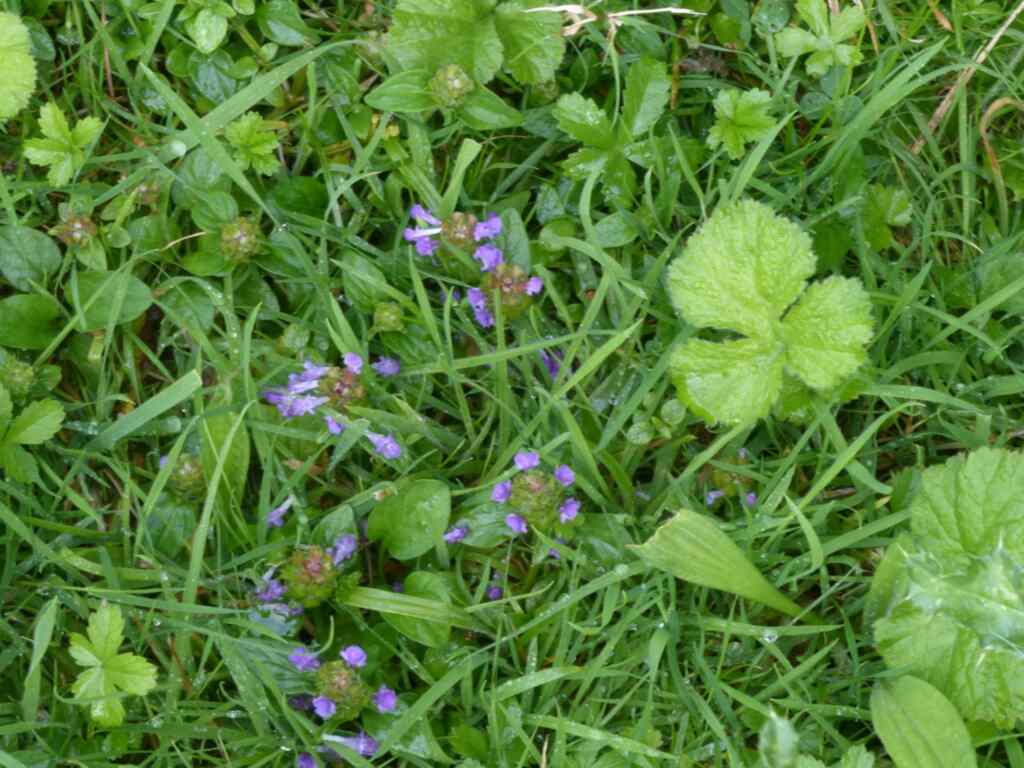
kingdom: Plantae
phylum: Tracheophyta
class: Magnoliopsida
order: Lamiales
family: Lamiaceae
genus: Prunella
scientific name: Prunella vulgaris
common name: Heal-all
